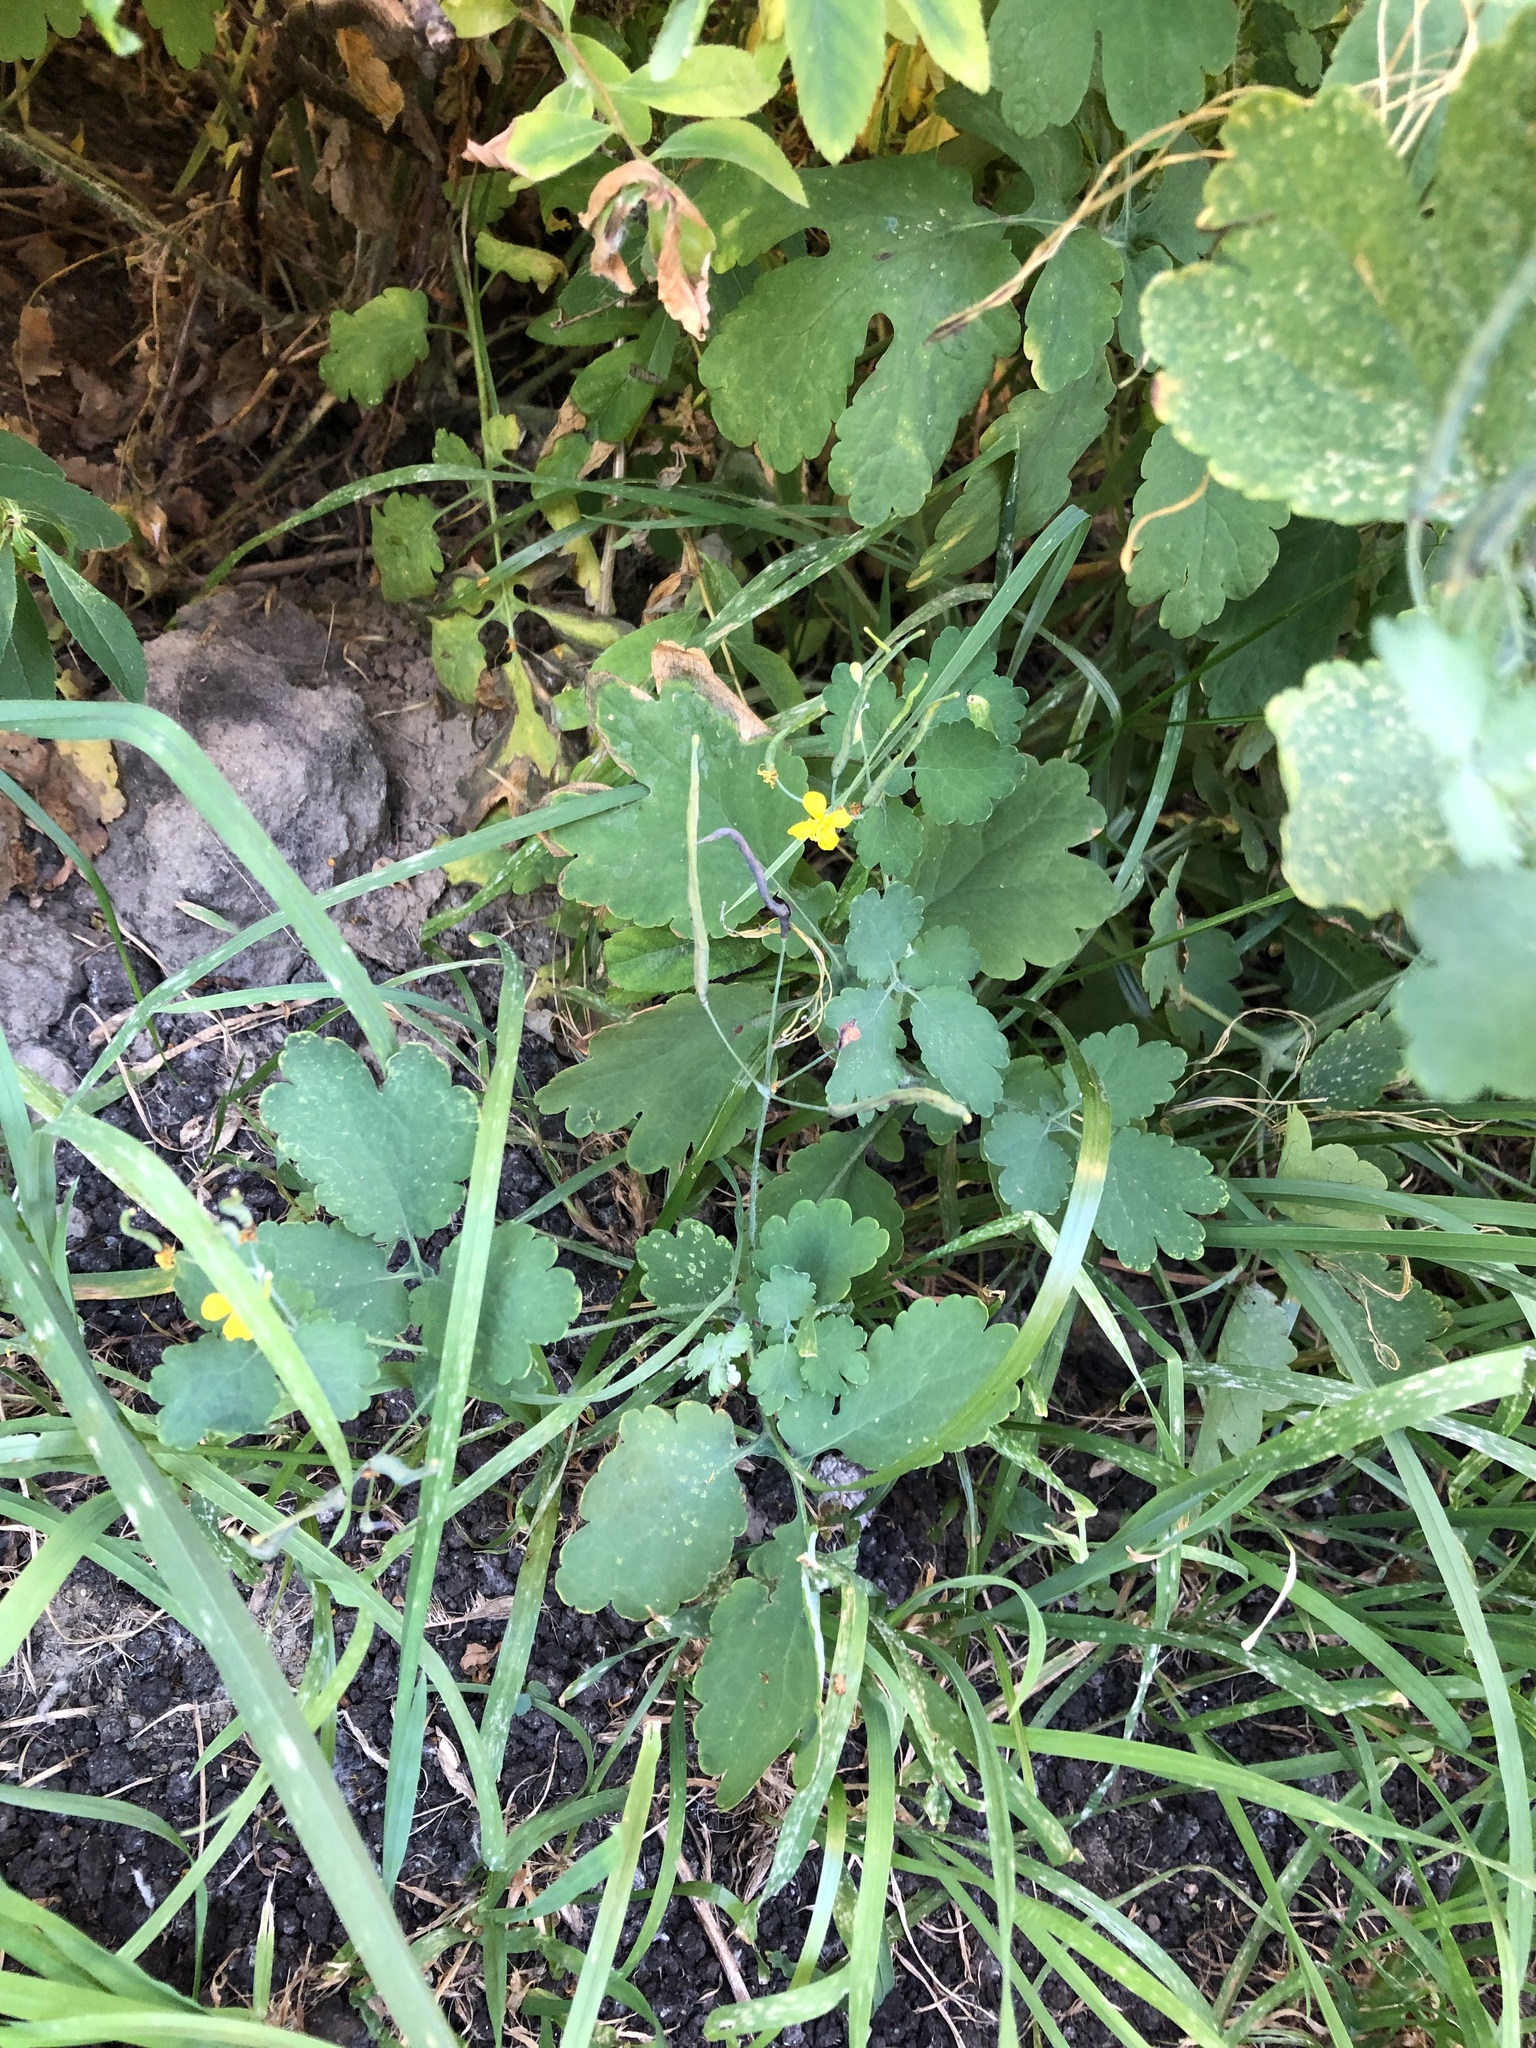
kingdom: Plantae
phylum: Tracheophyta
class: Magnoliopsida
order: Ranunculales
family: Papaveraceae
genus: Chelidonium
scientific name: Chelidonium majus
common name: Greater celandine
